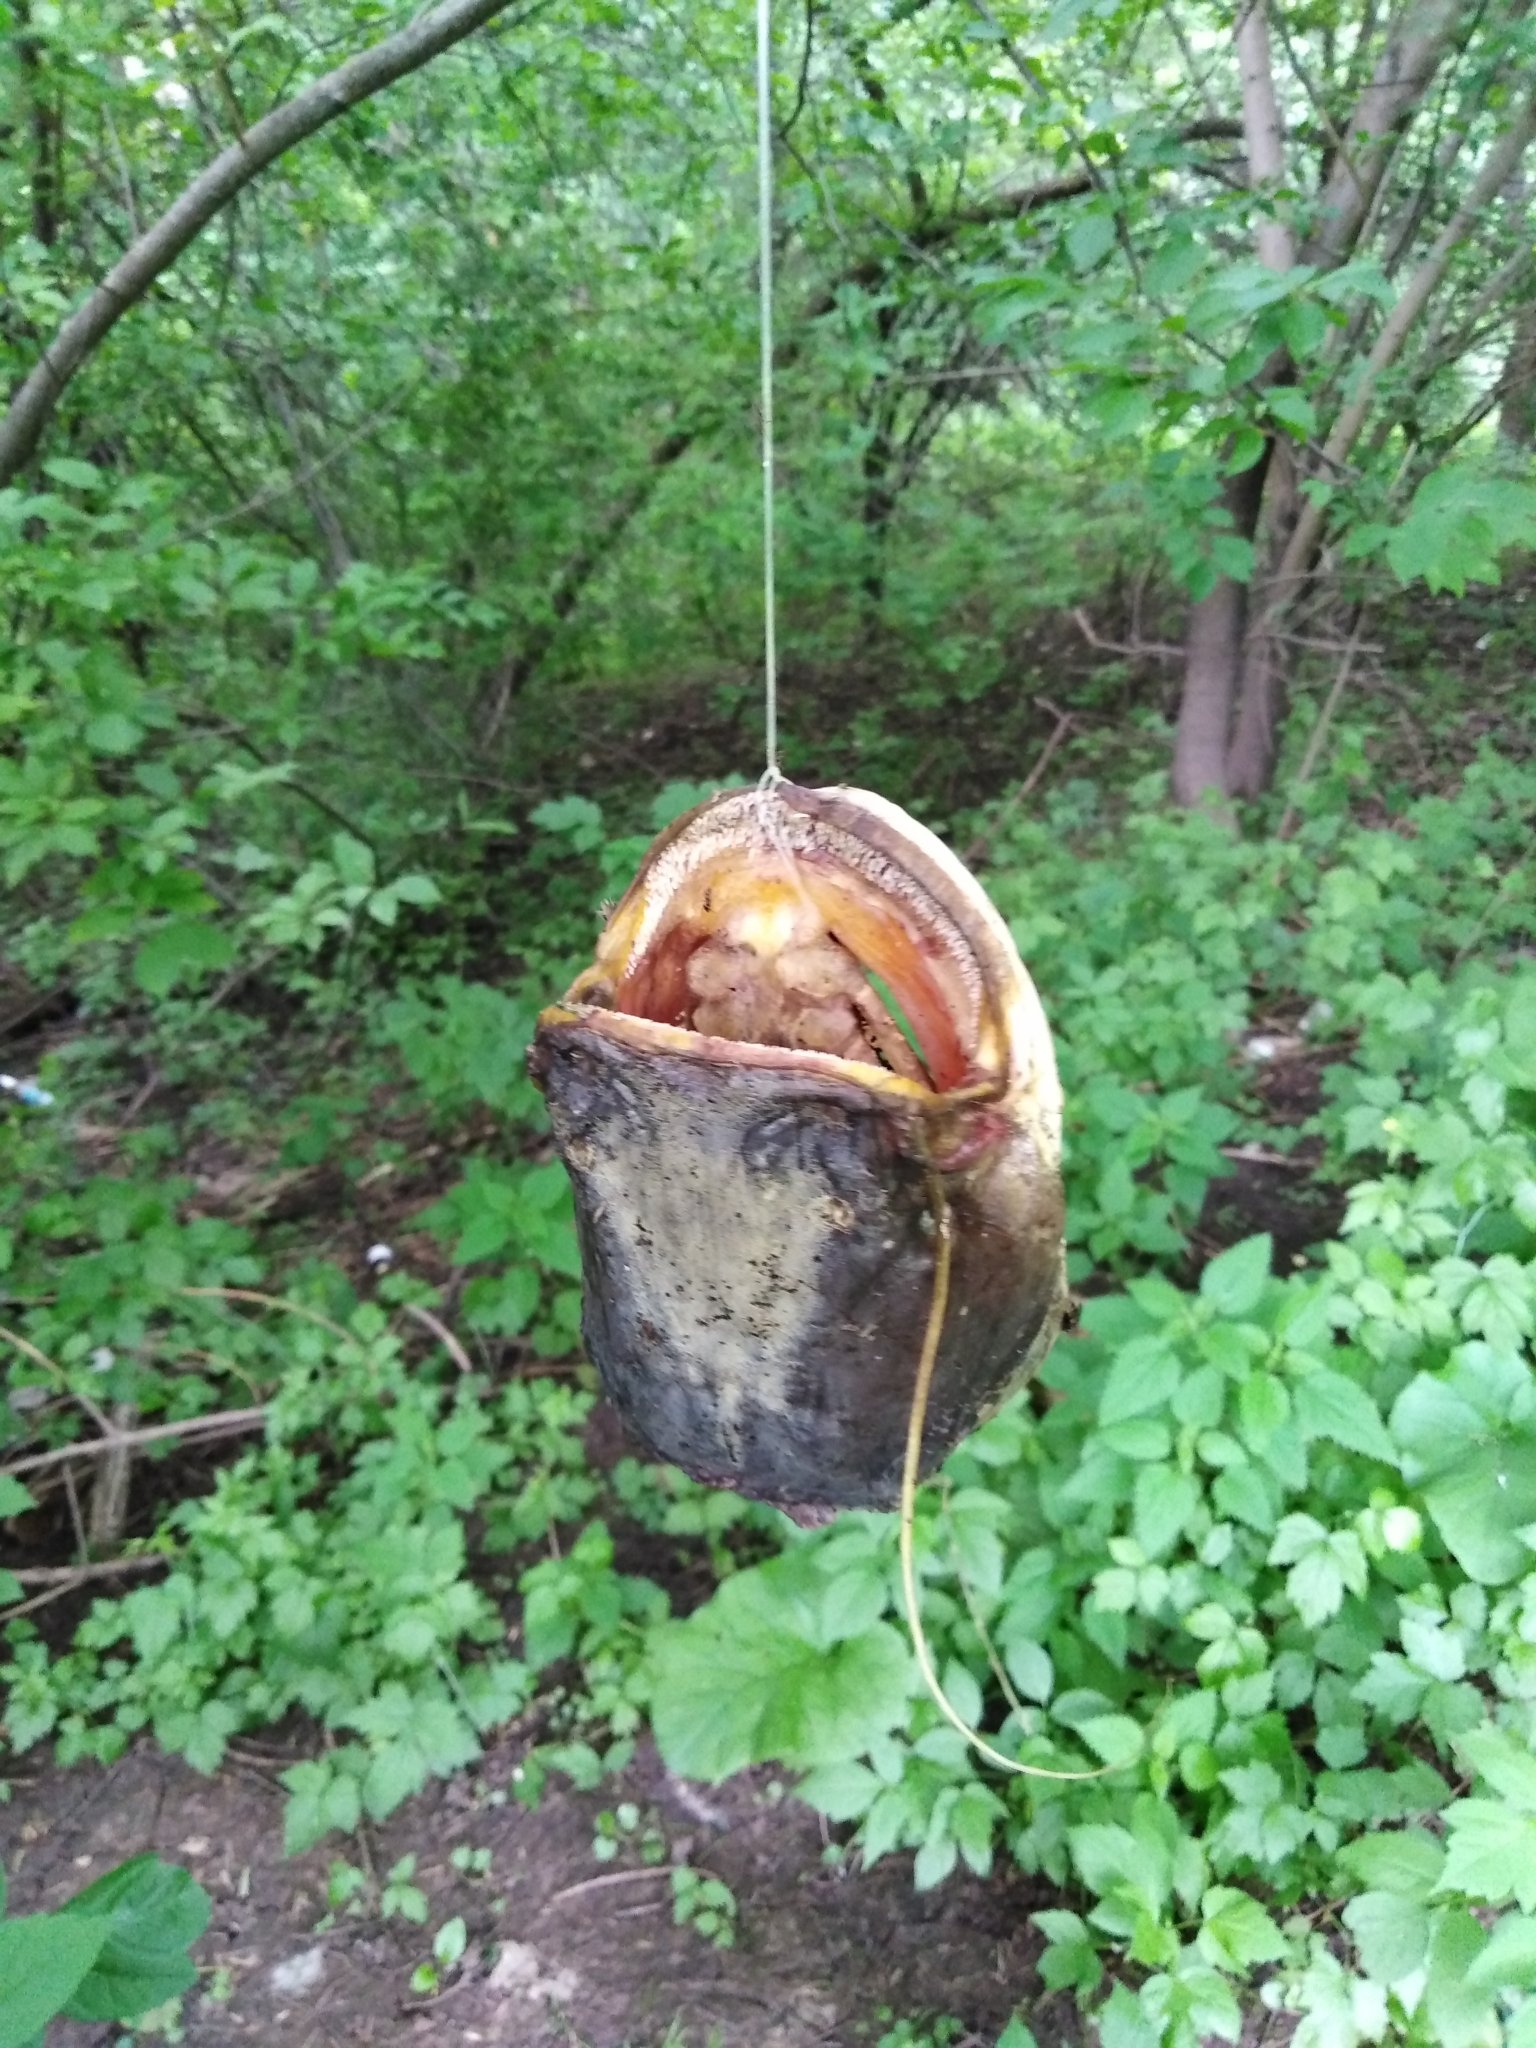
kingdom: Animalia
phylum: Chordata
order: Siluriformes
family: Siluridae
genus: Silurus
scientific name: Silurus glanis
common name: Wels
